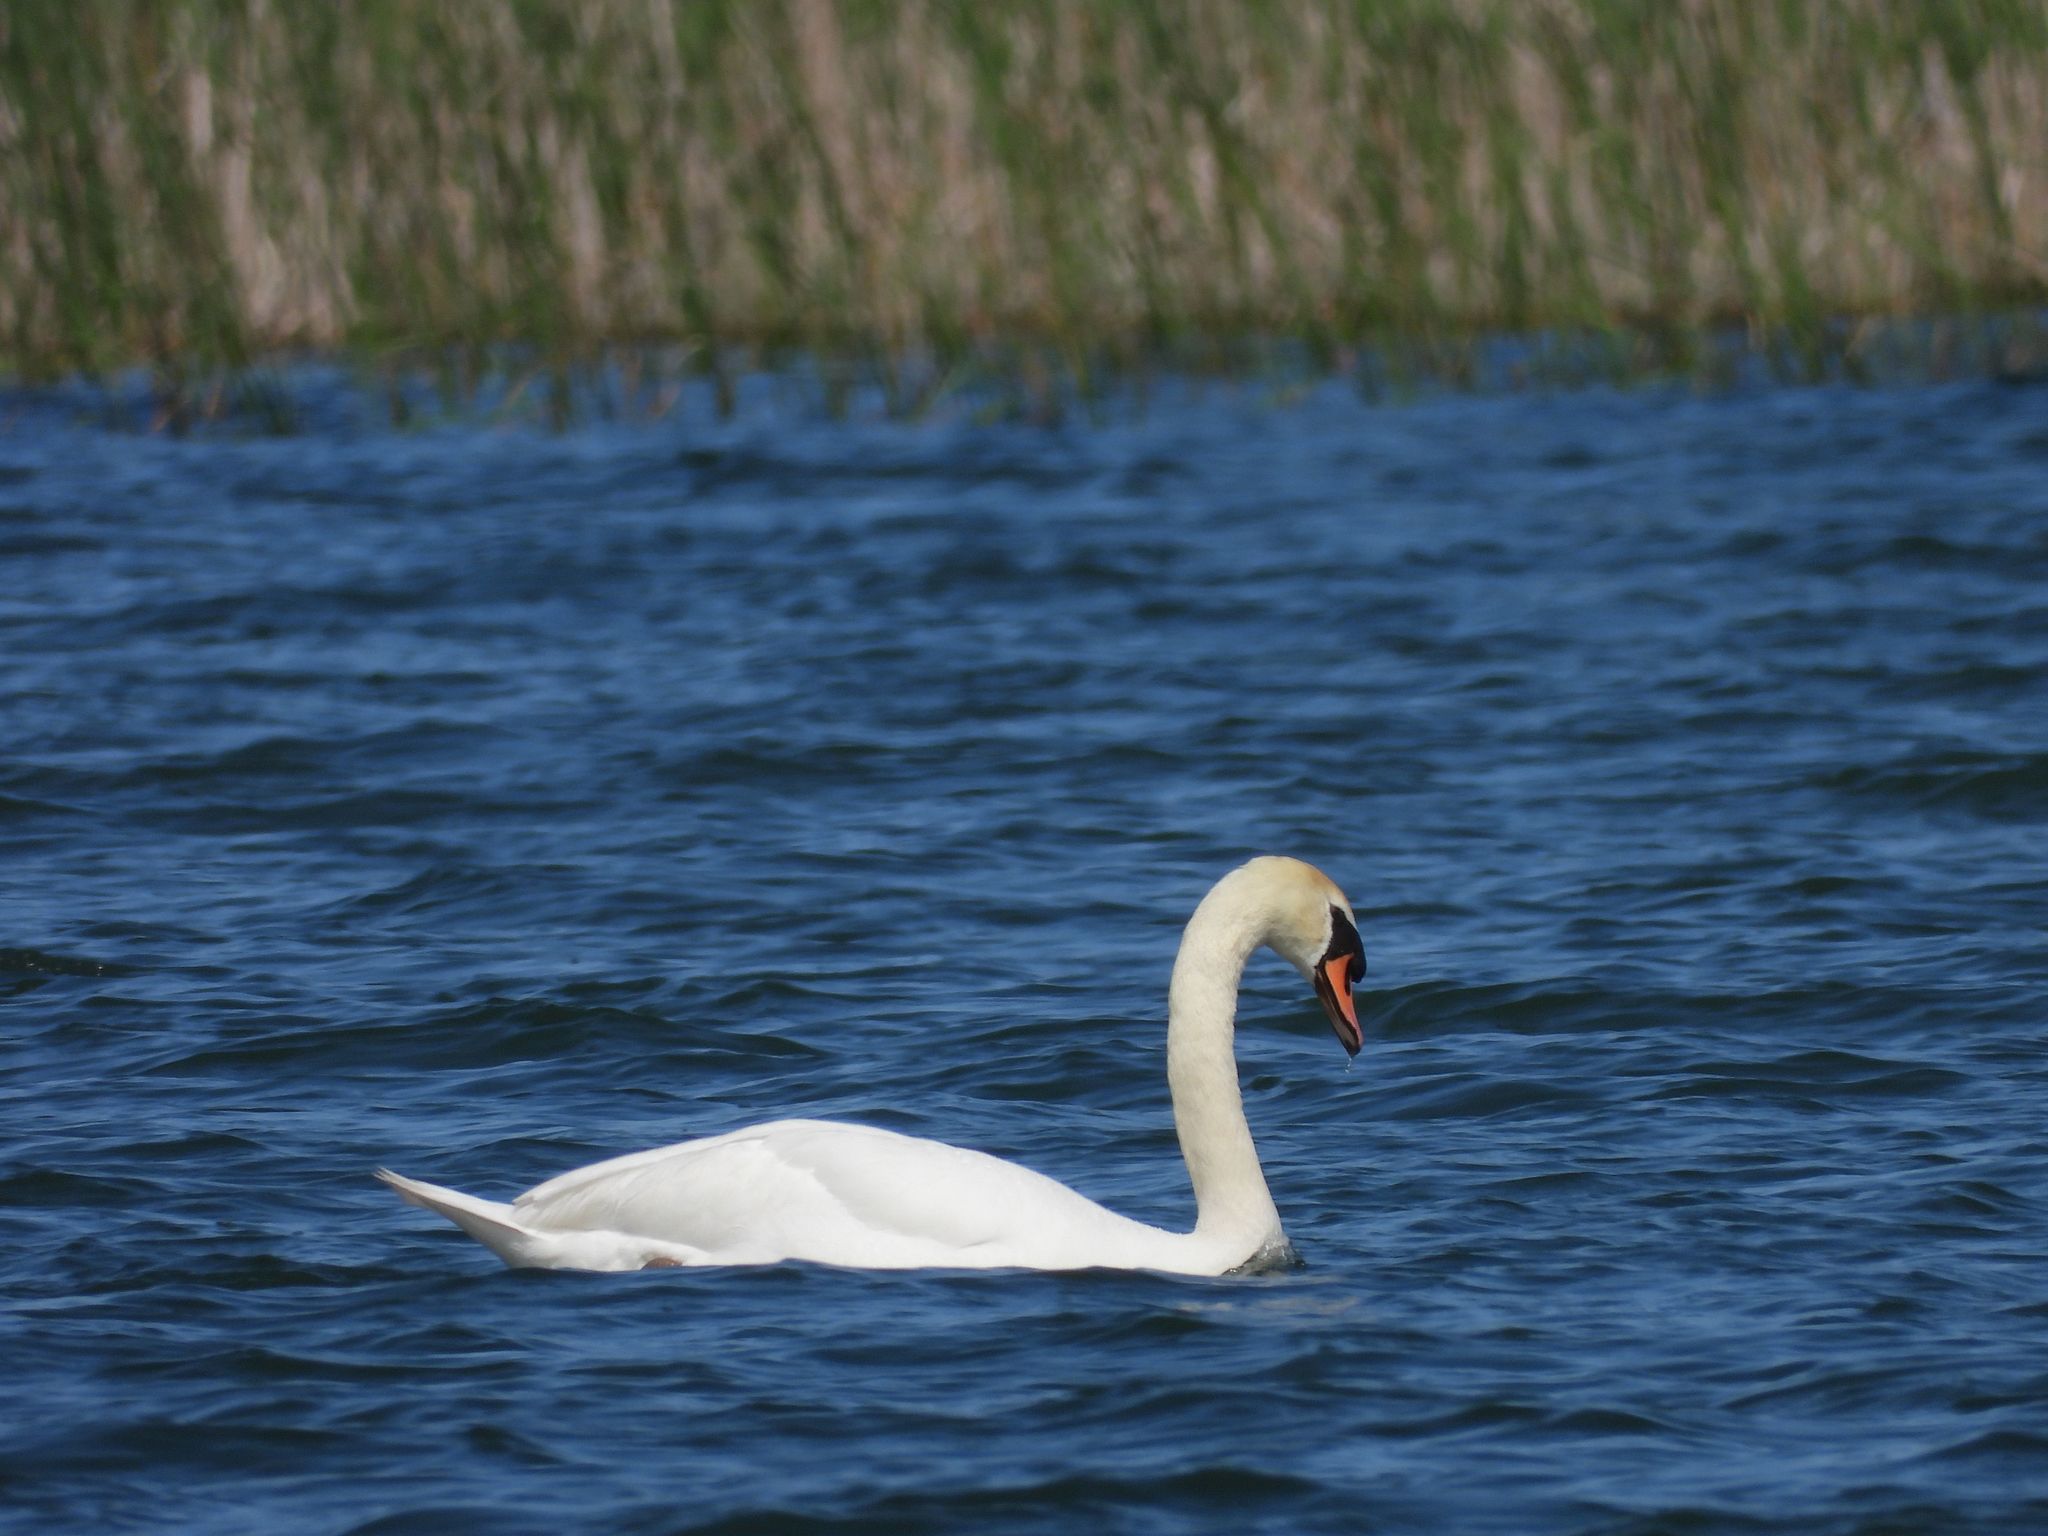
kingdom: Animalia
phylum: Chordata
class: Aves
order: Anseriformes
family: Anatidae
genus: Cygnus
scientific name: Cygnus olor
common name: Mute swan
